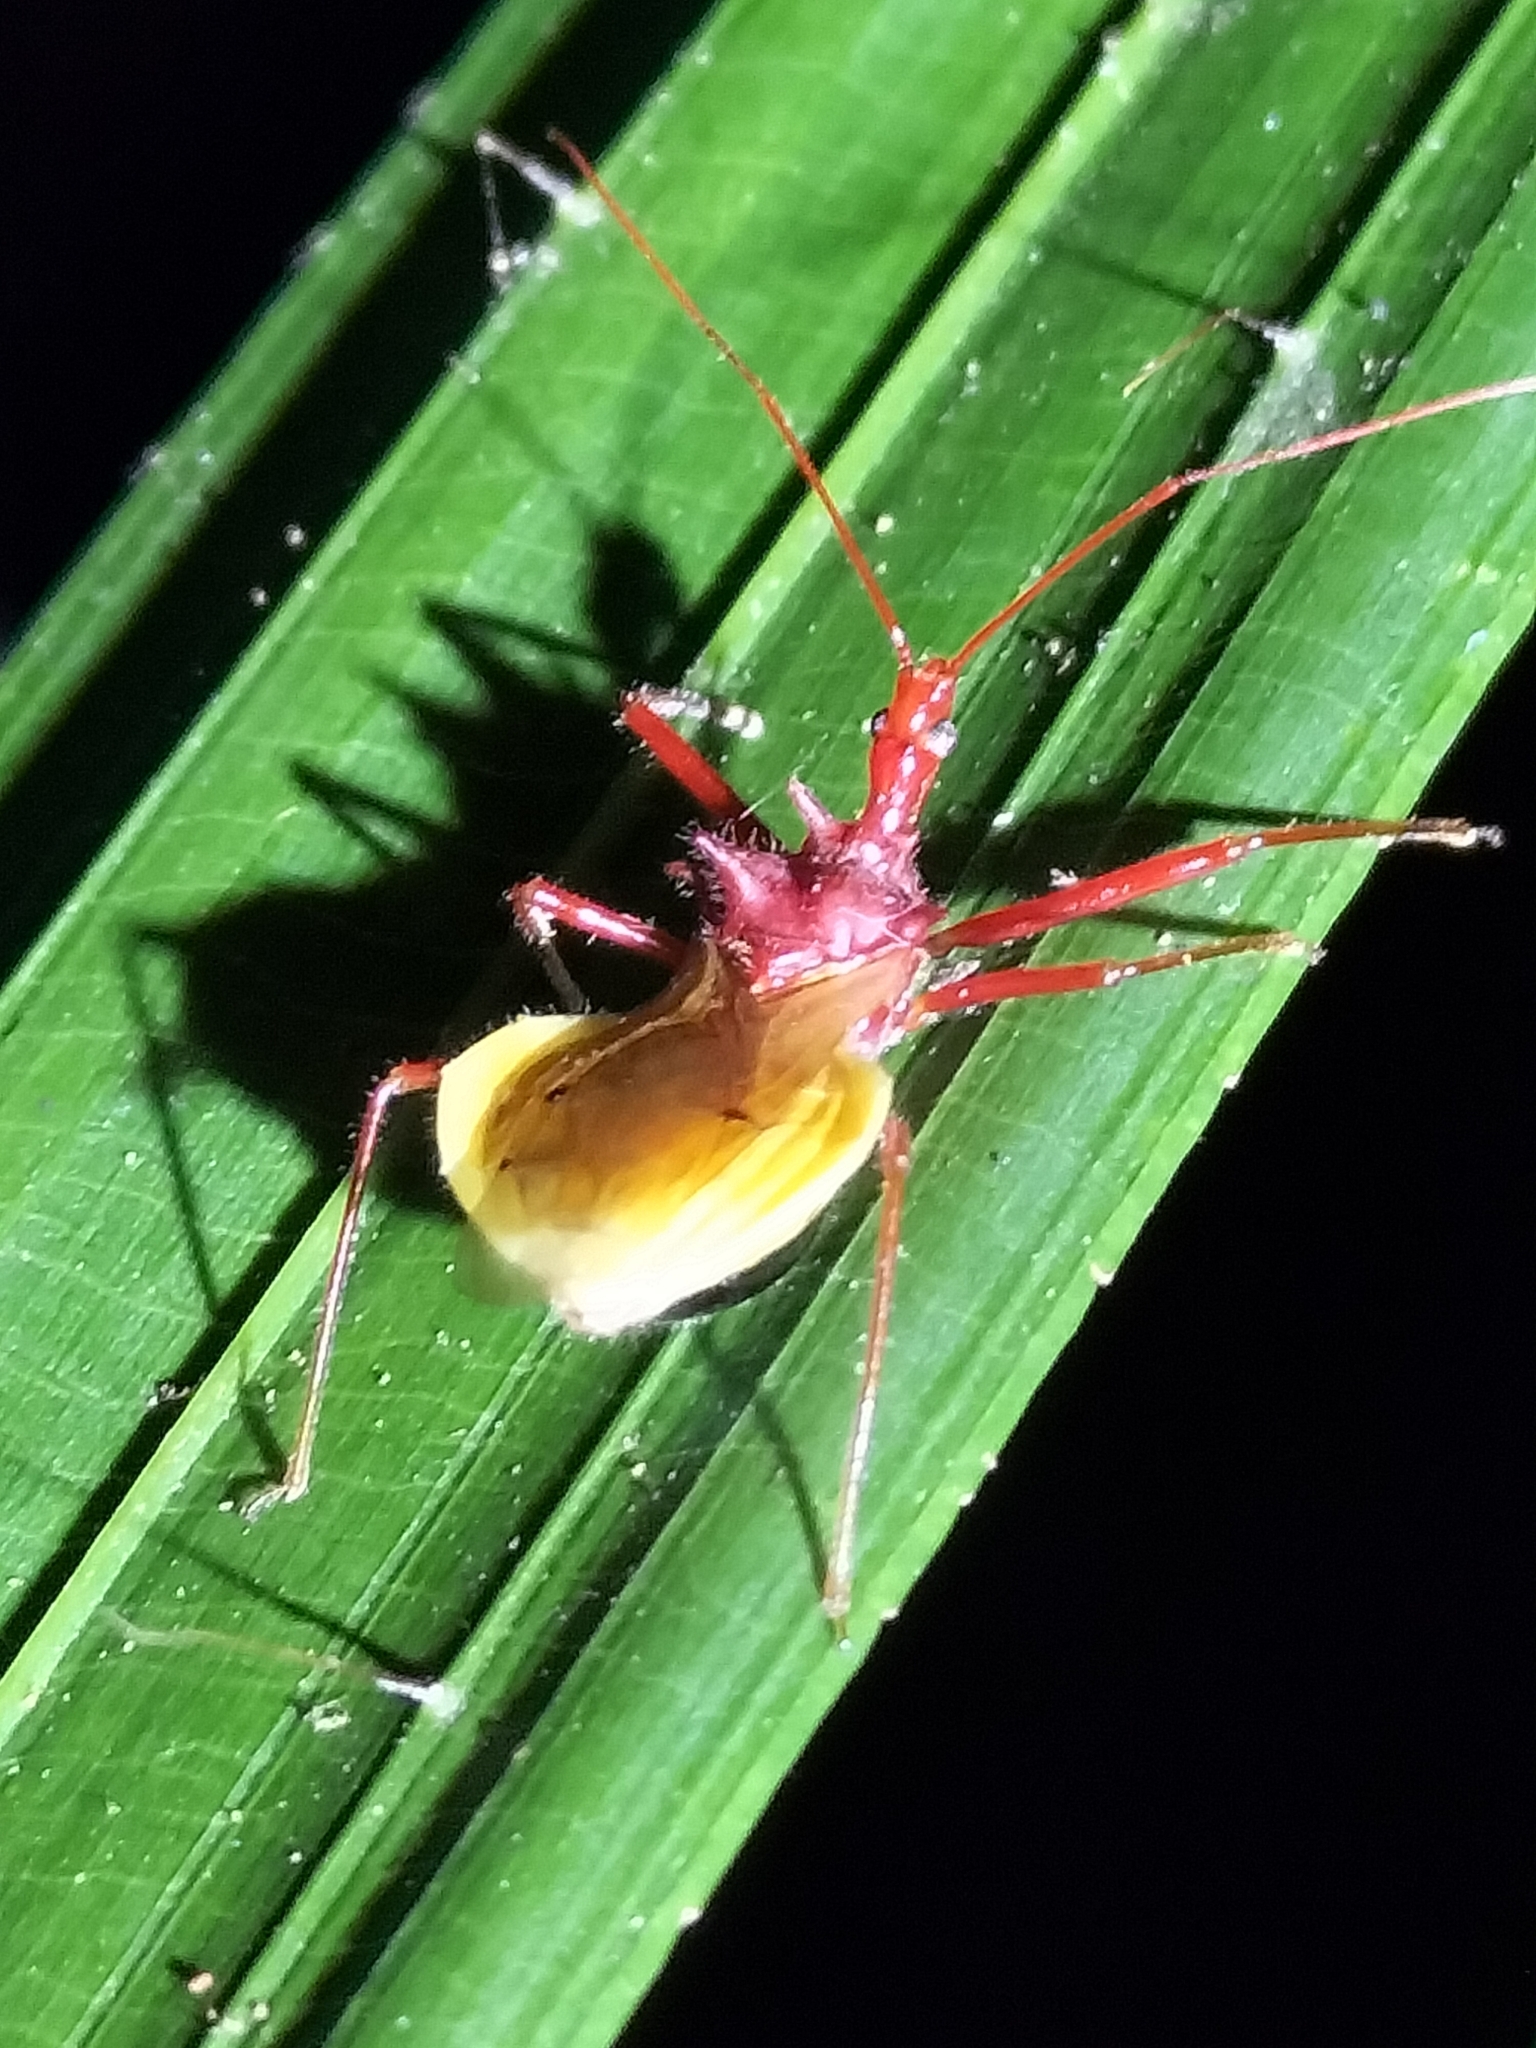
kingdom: Animalia
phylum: Arthropoda
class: Insecta
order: Hemiptera
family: Reduviidae
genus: Gminatellus
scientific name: Gminatellus debilis
